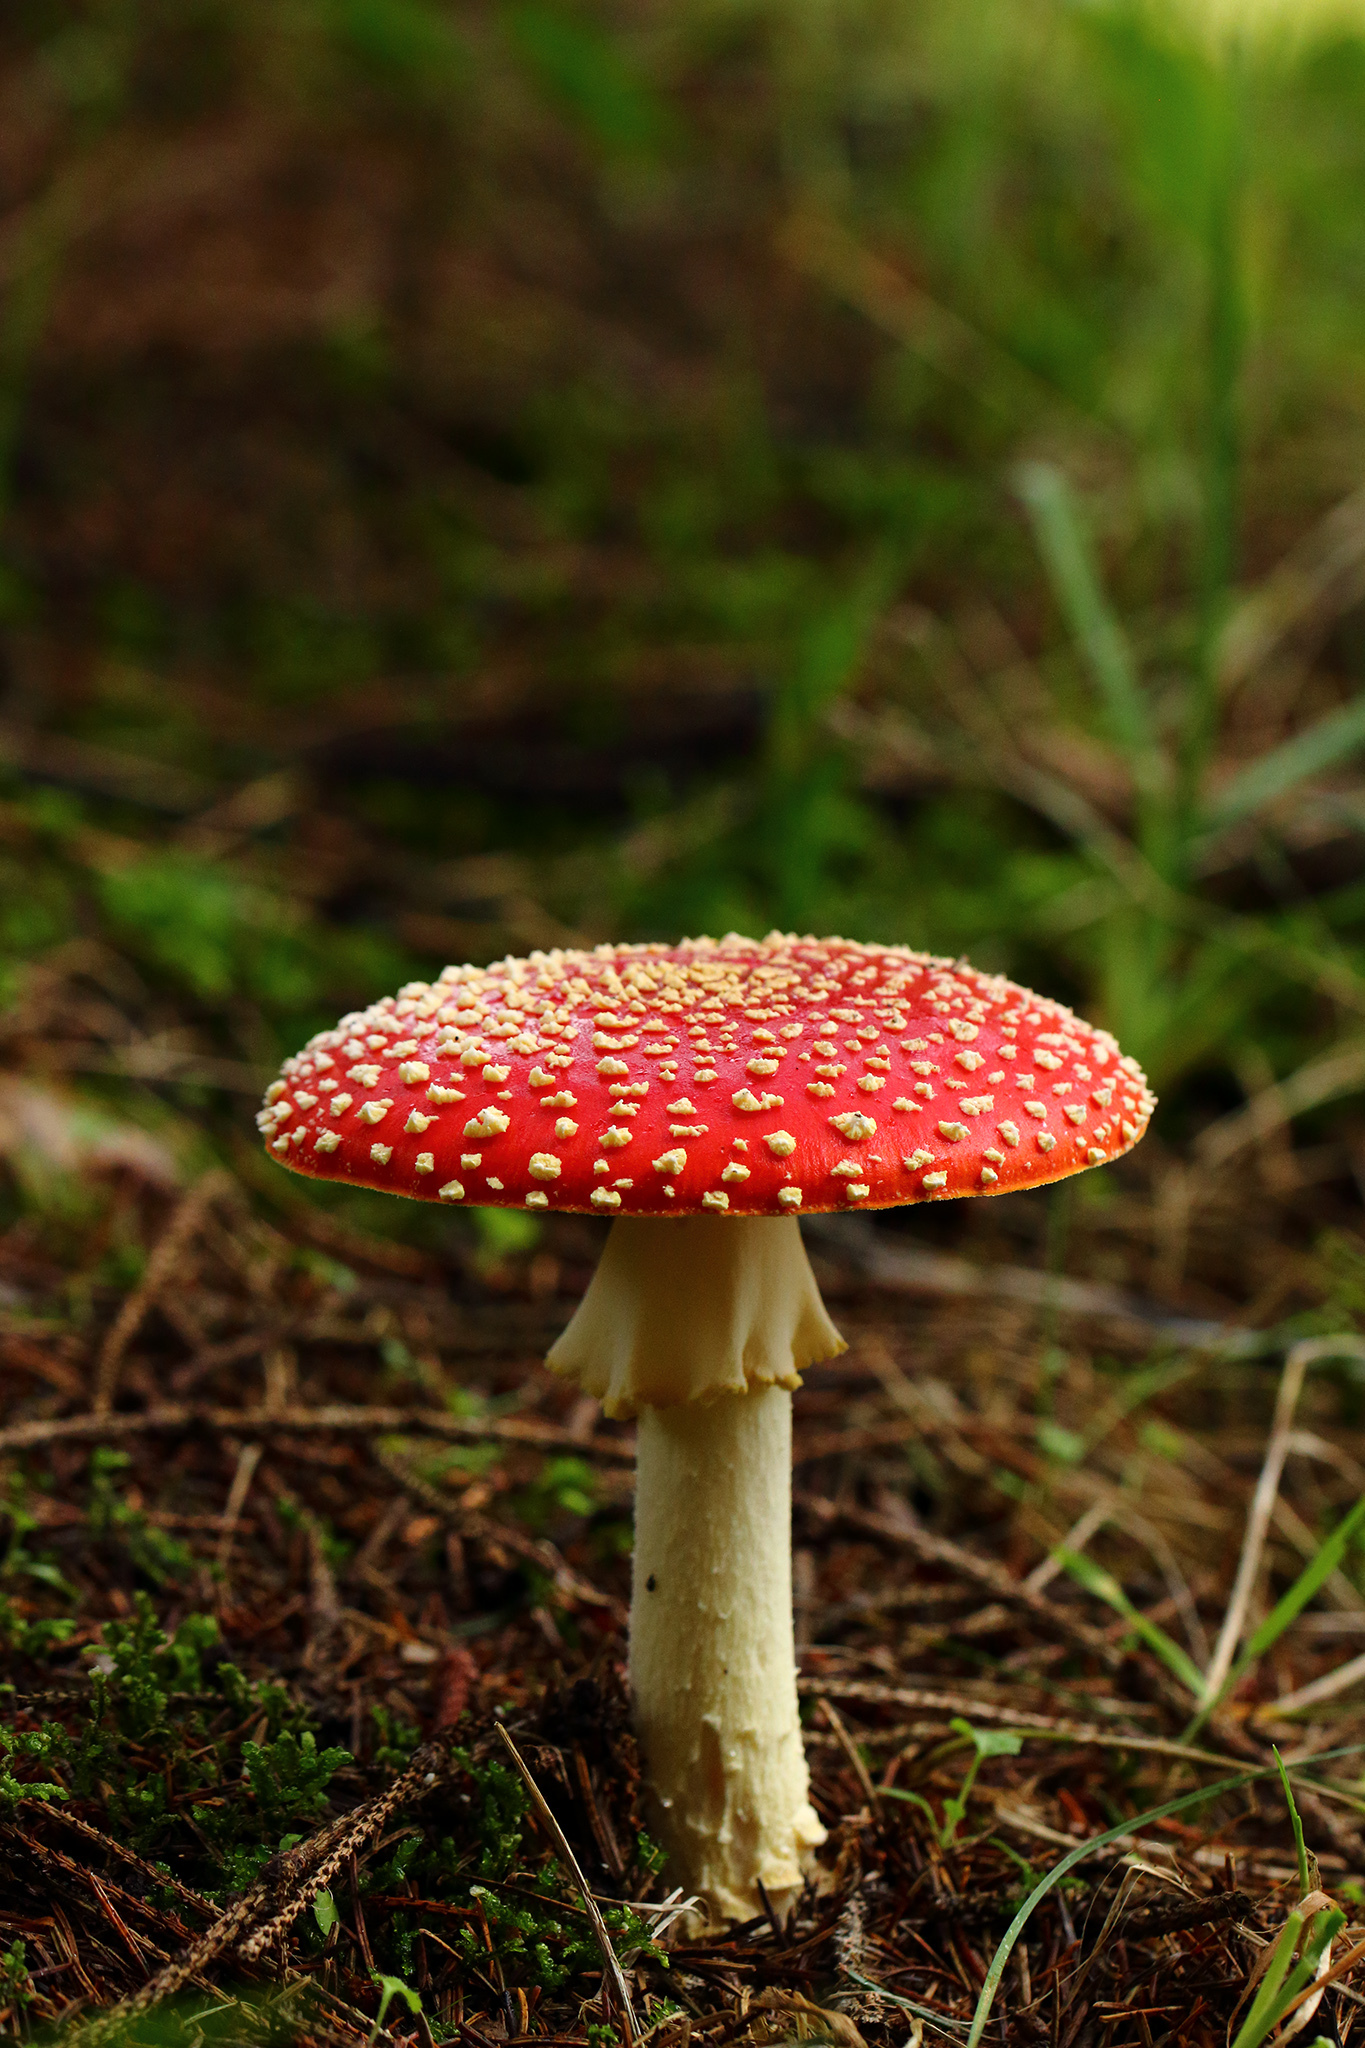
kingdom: Fungi
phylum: Basidiomycota
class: Agaricomycetes
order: Agaricales
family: Amanitaceae
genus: Amanita
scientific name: Amanita muscaria
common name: Fly agaric
